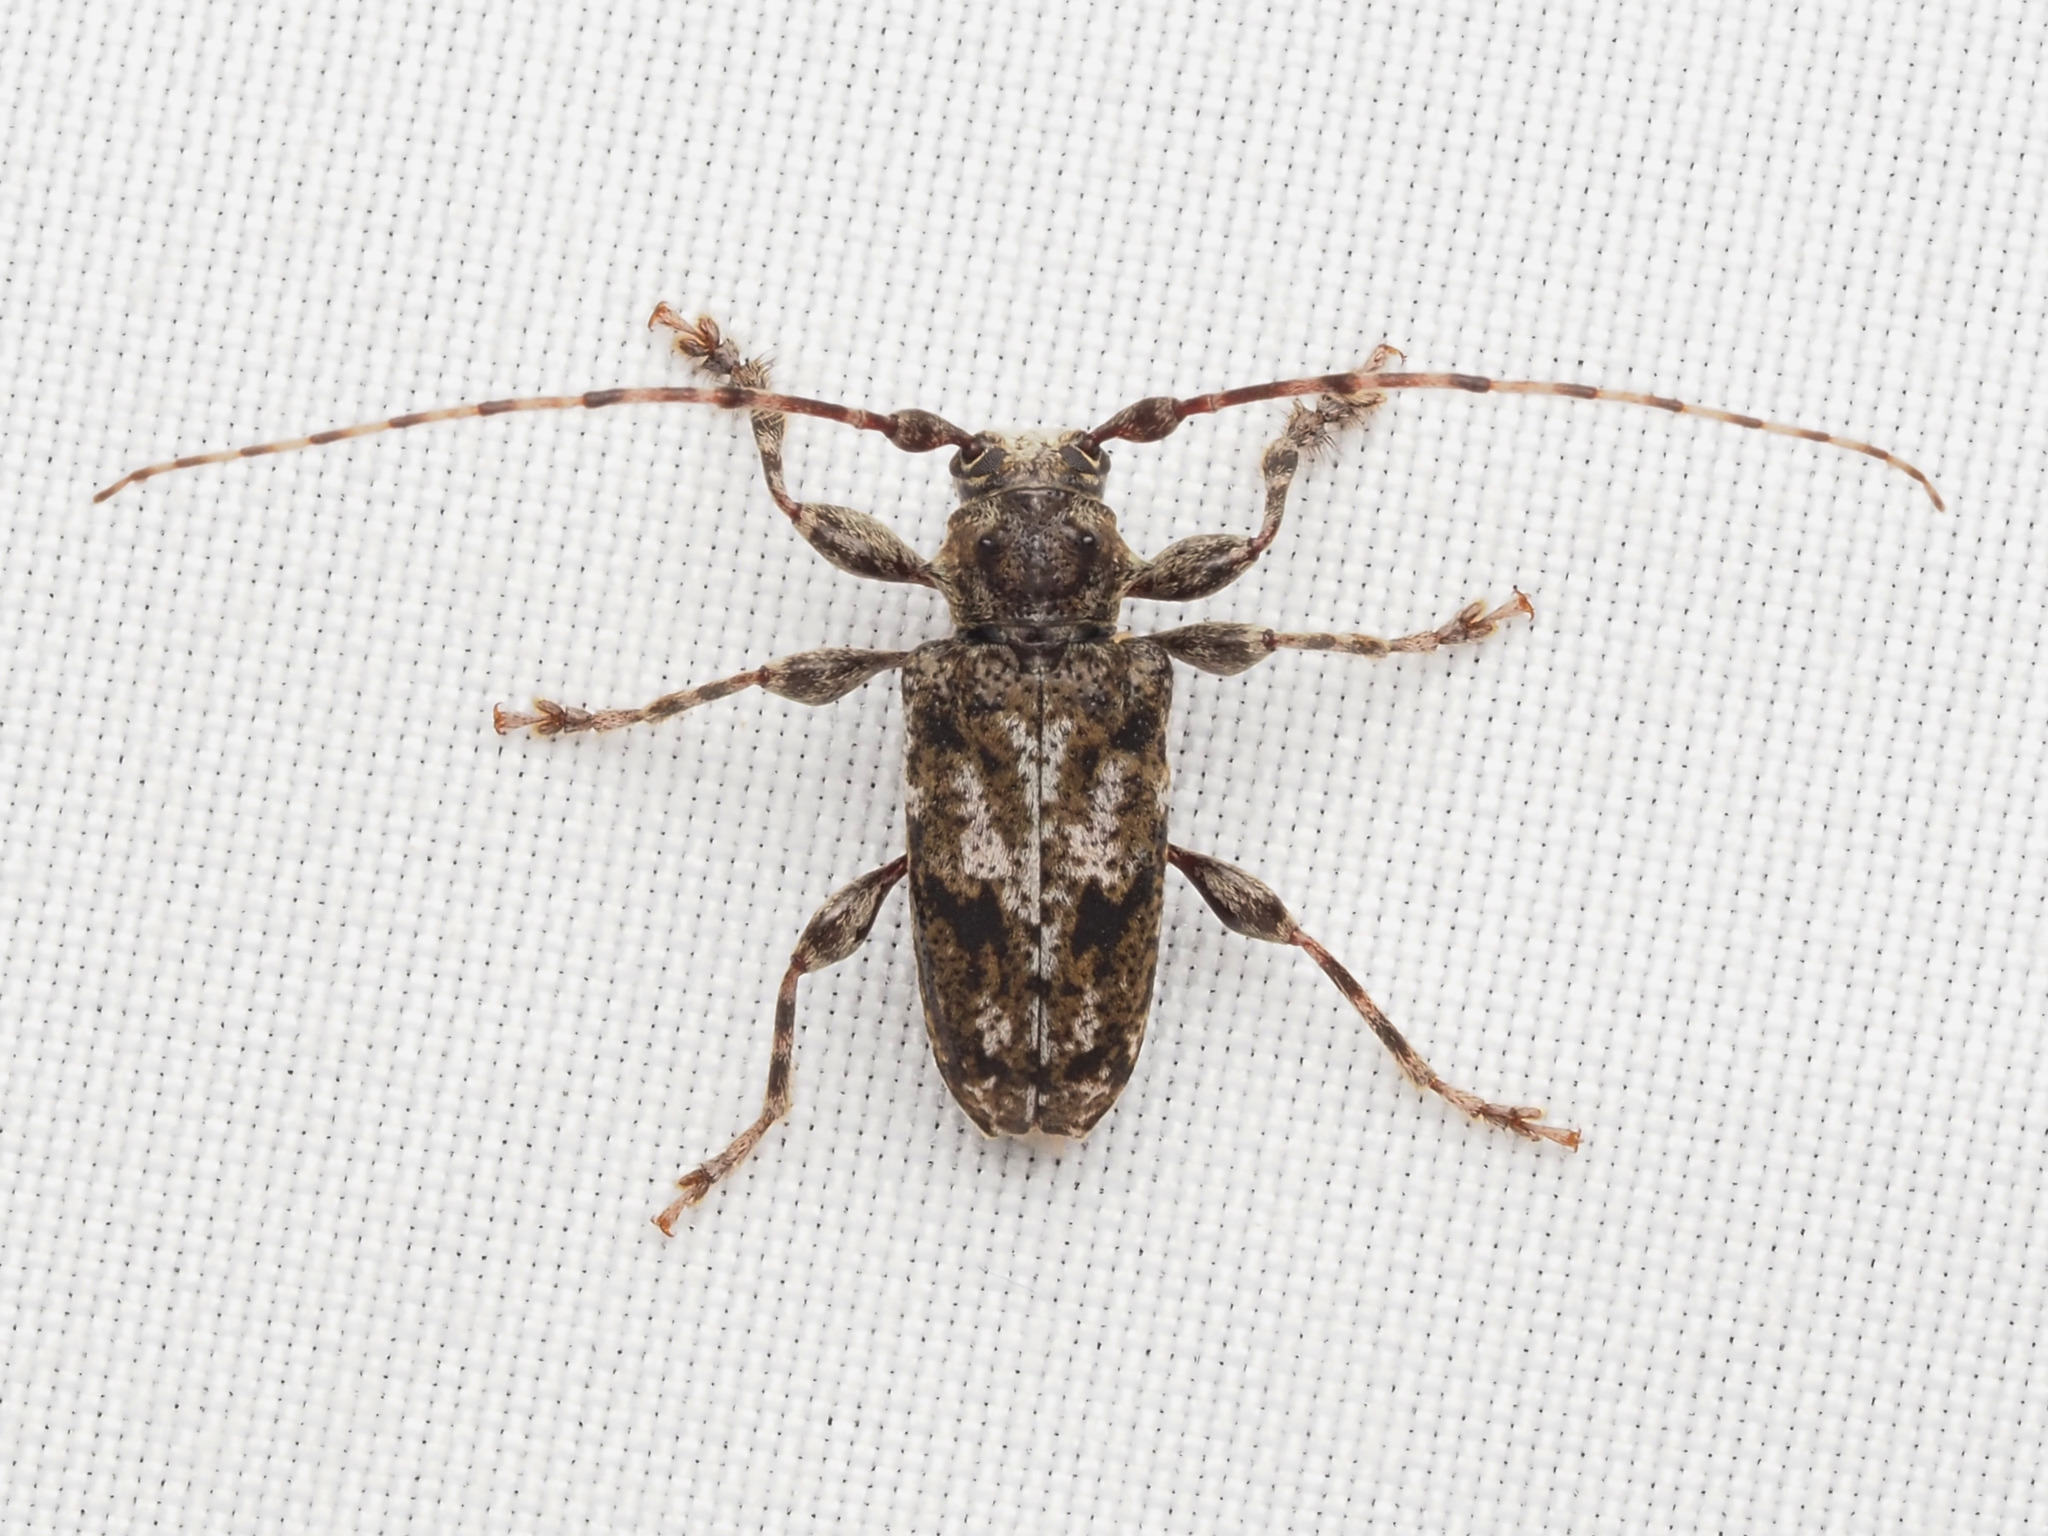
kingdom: Animalia
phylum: Arthropoda
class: Insecta
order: Coleoptera
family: Cerambycidae
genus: Aegomorphus
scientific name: Aegomorphus modestus
